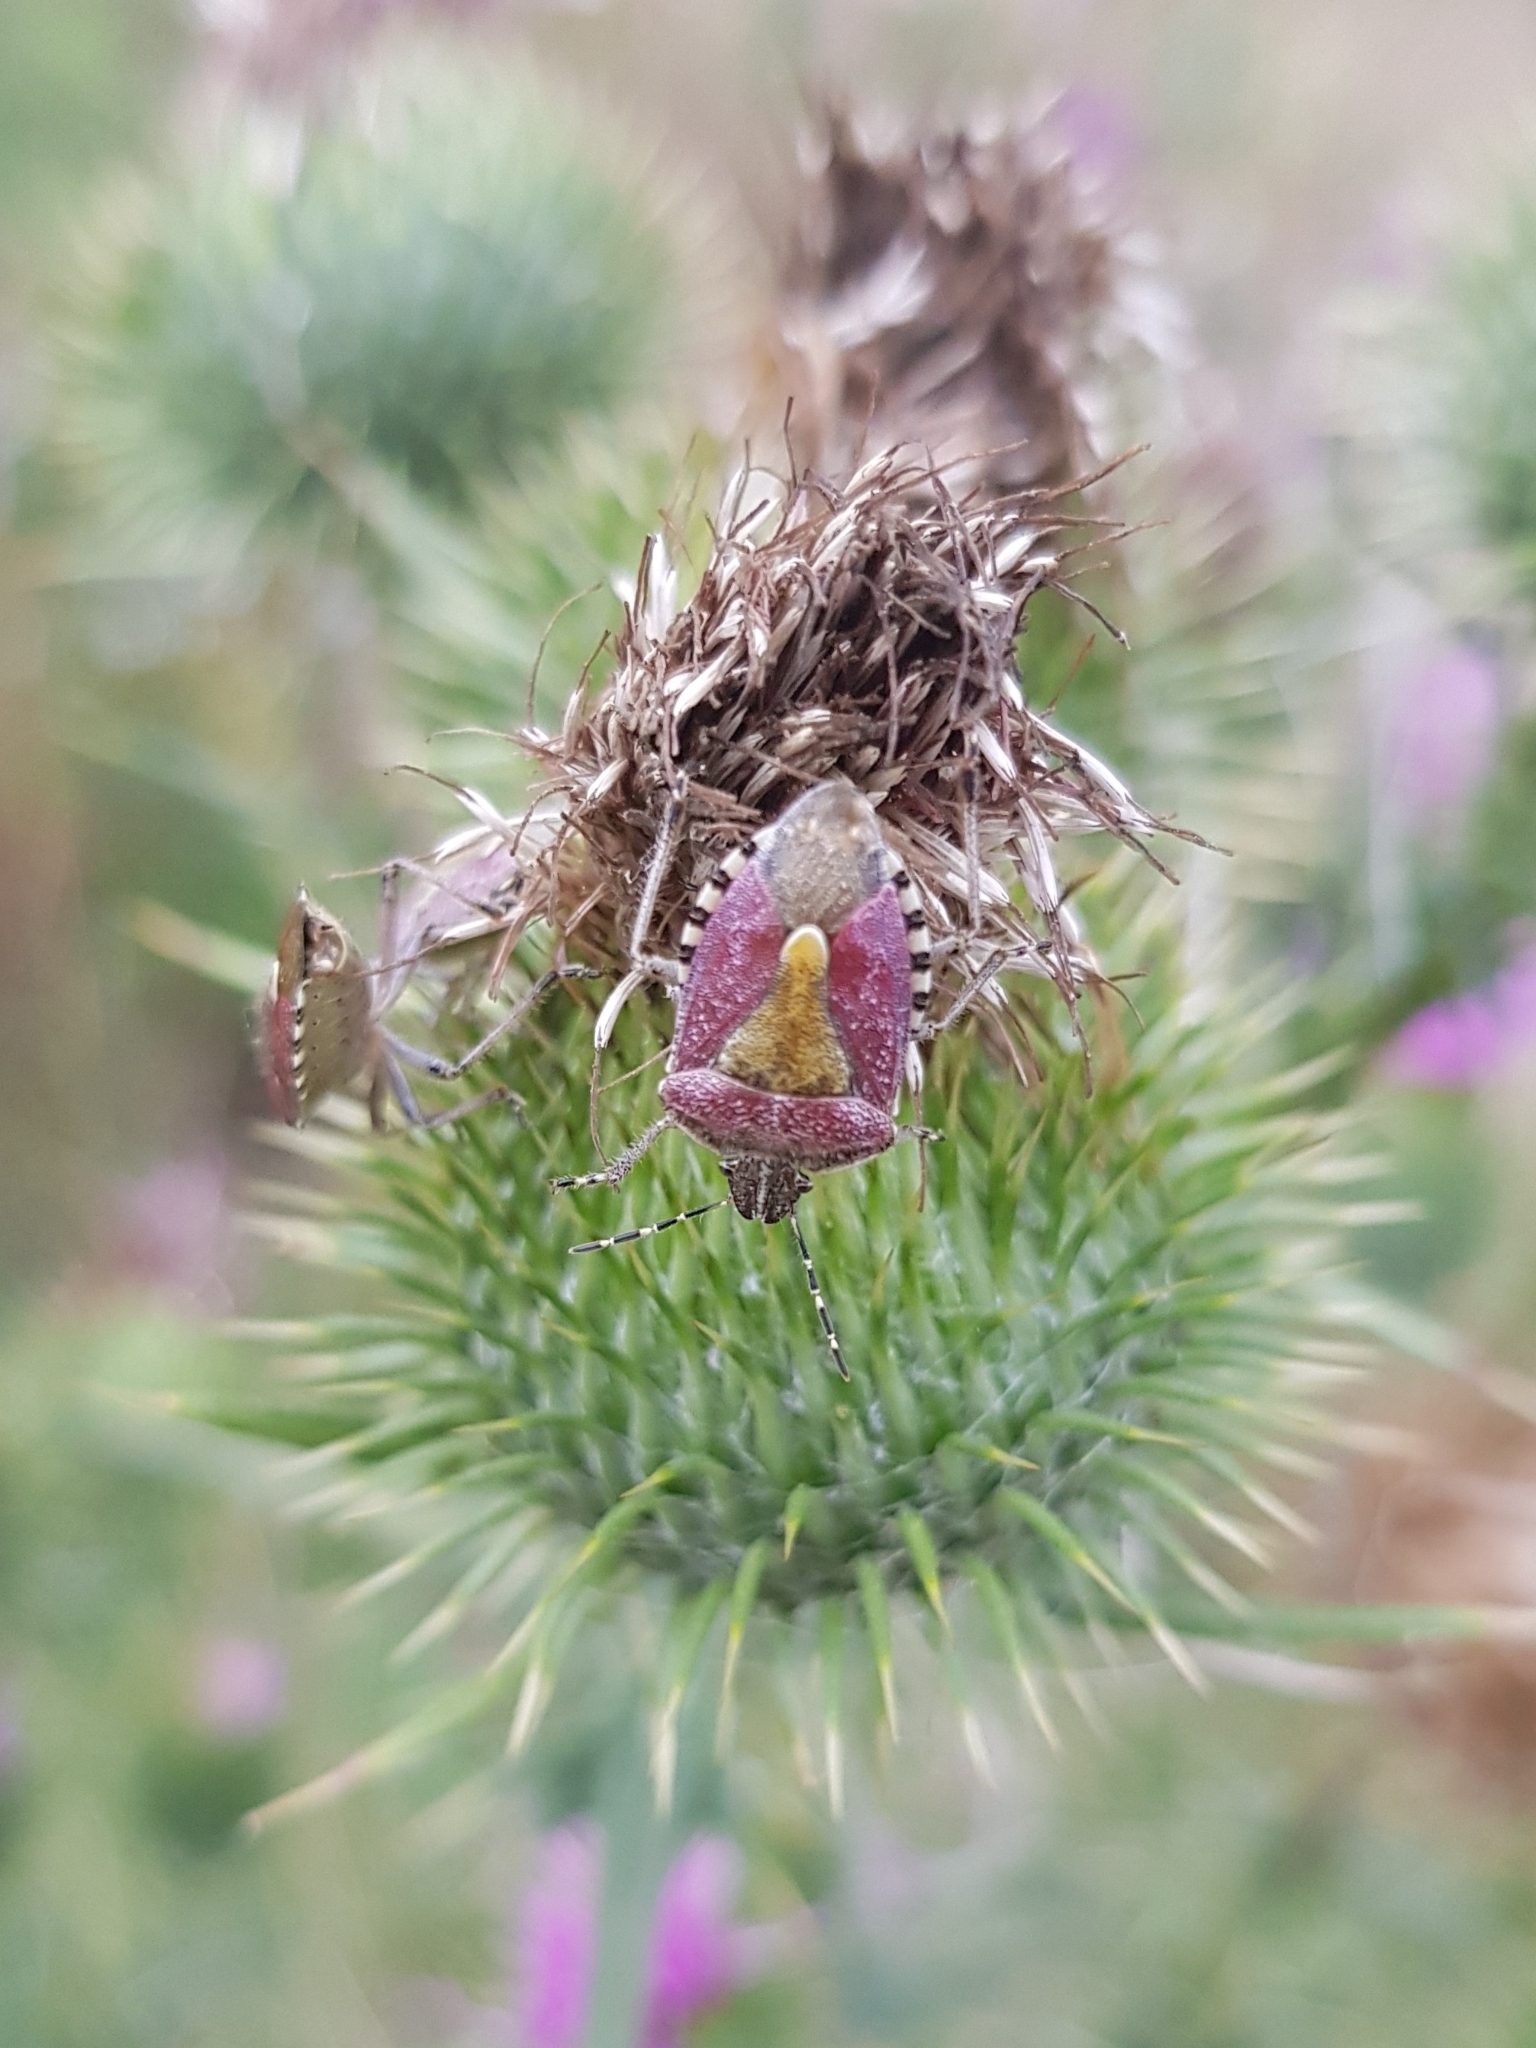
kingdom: Animalia
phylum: Arthropoda
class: Insecta
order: Hemiptera
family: Pentatomidae
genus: Dolycoris
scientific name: Dolycoris baccarum
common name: Sloe bug
